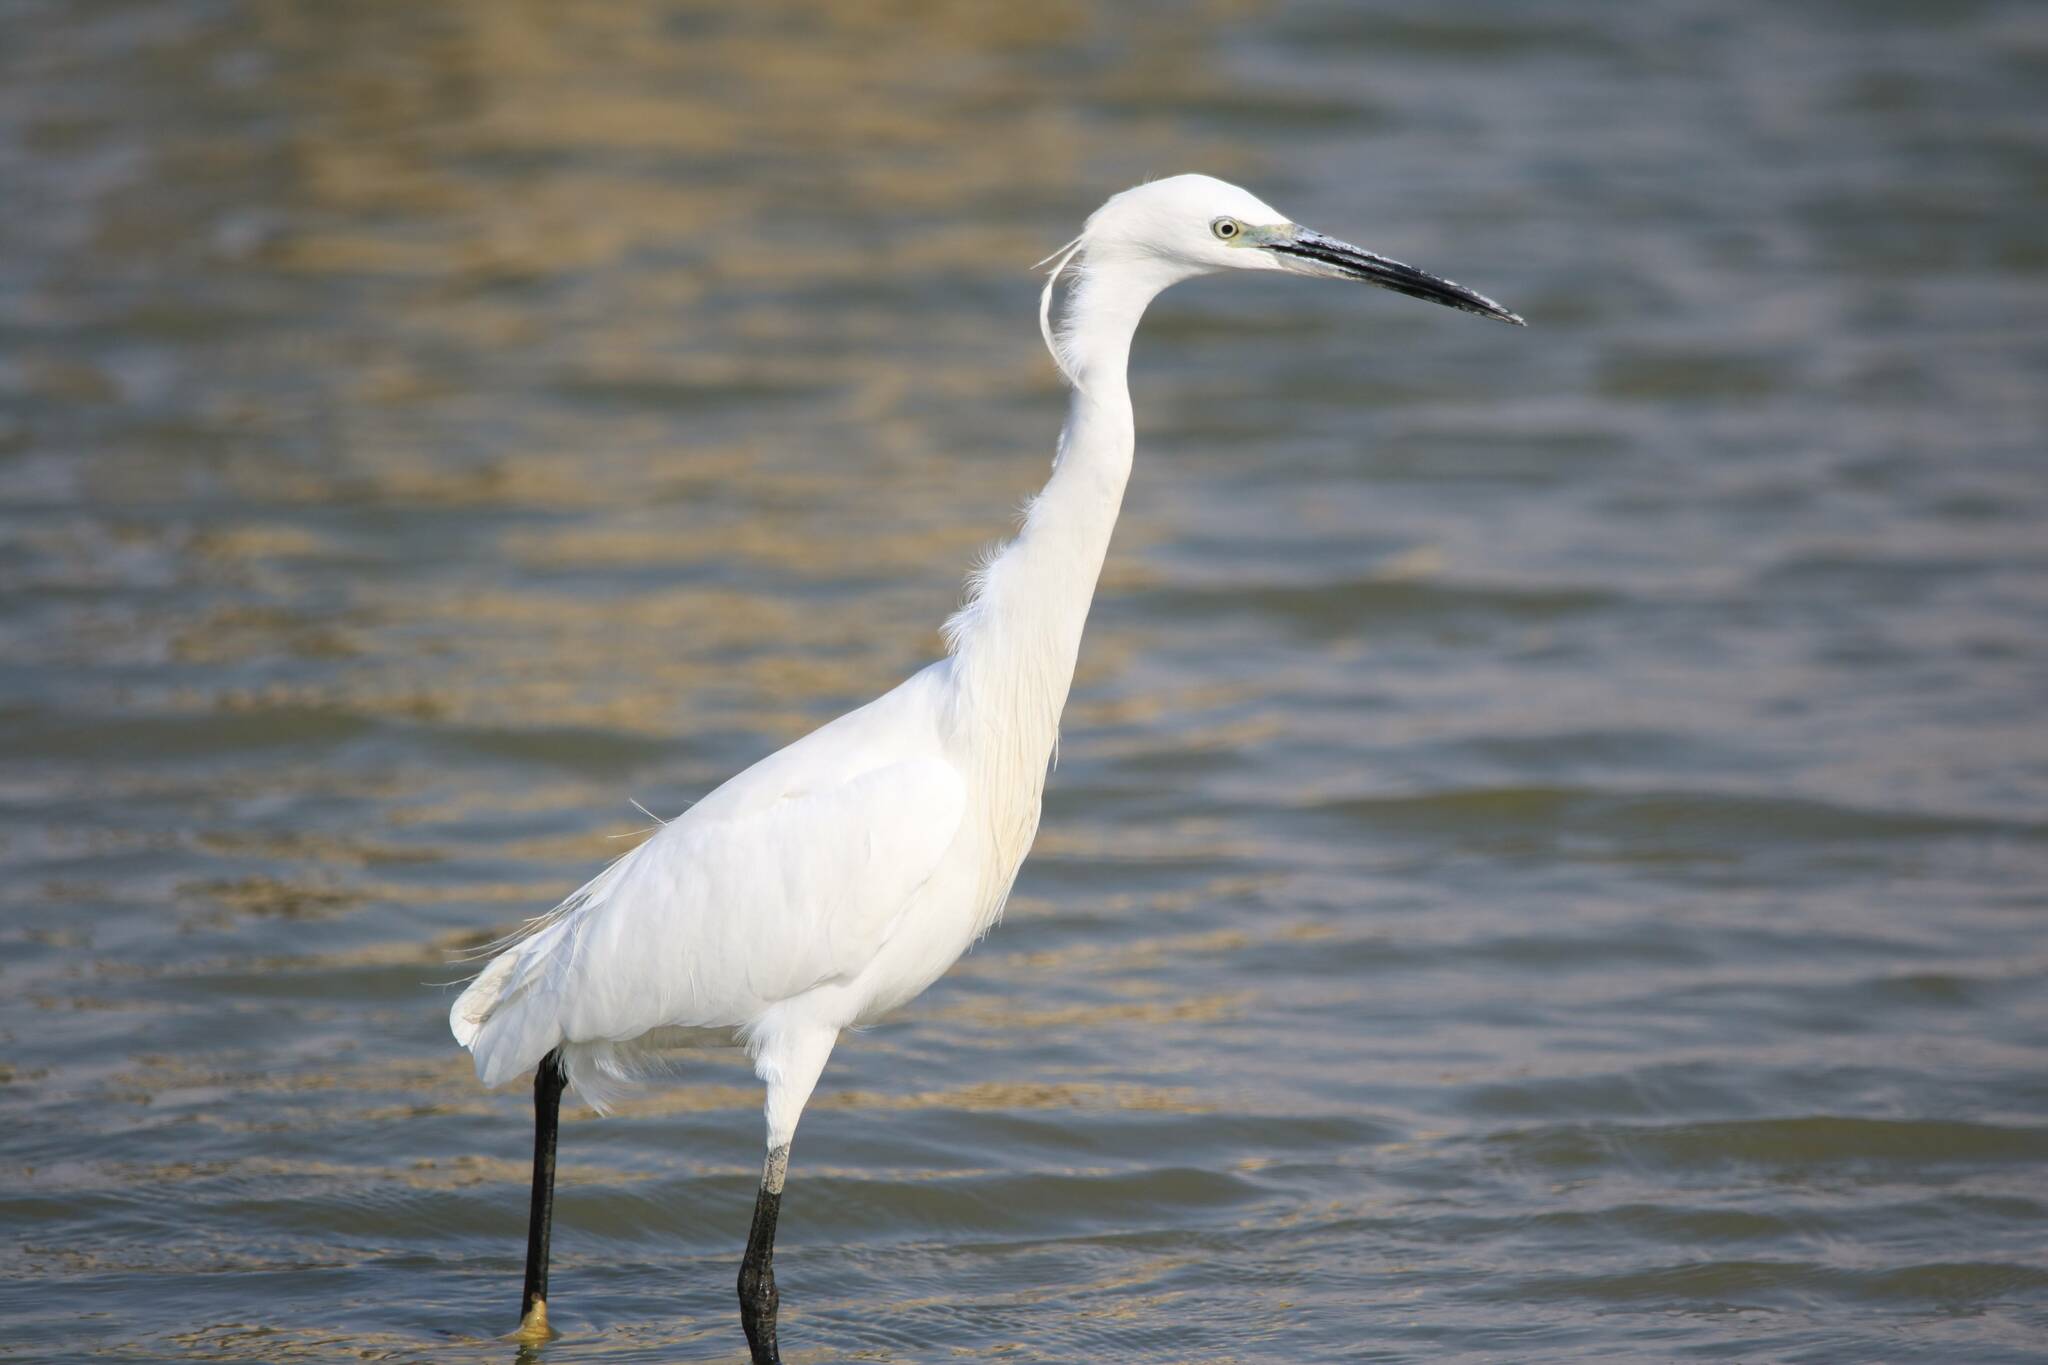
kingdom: Animalia
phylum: Chordata
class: Aves
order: Pelecaniformes
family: Ardeidae
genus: Egretta
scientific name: Egretta garzetta
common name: Little egret
